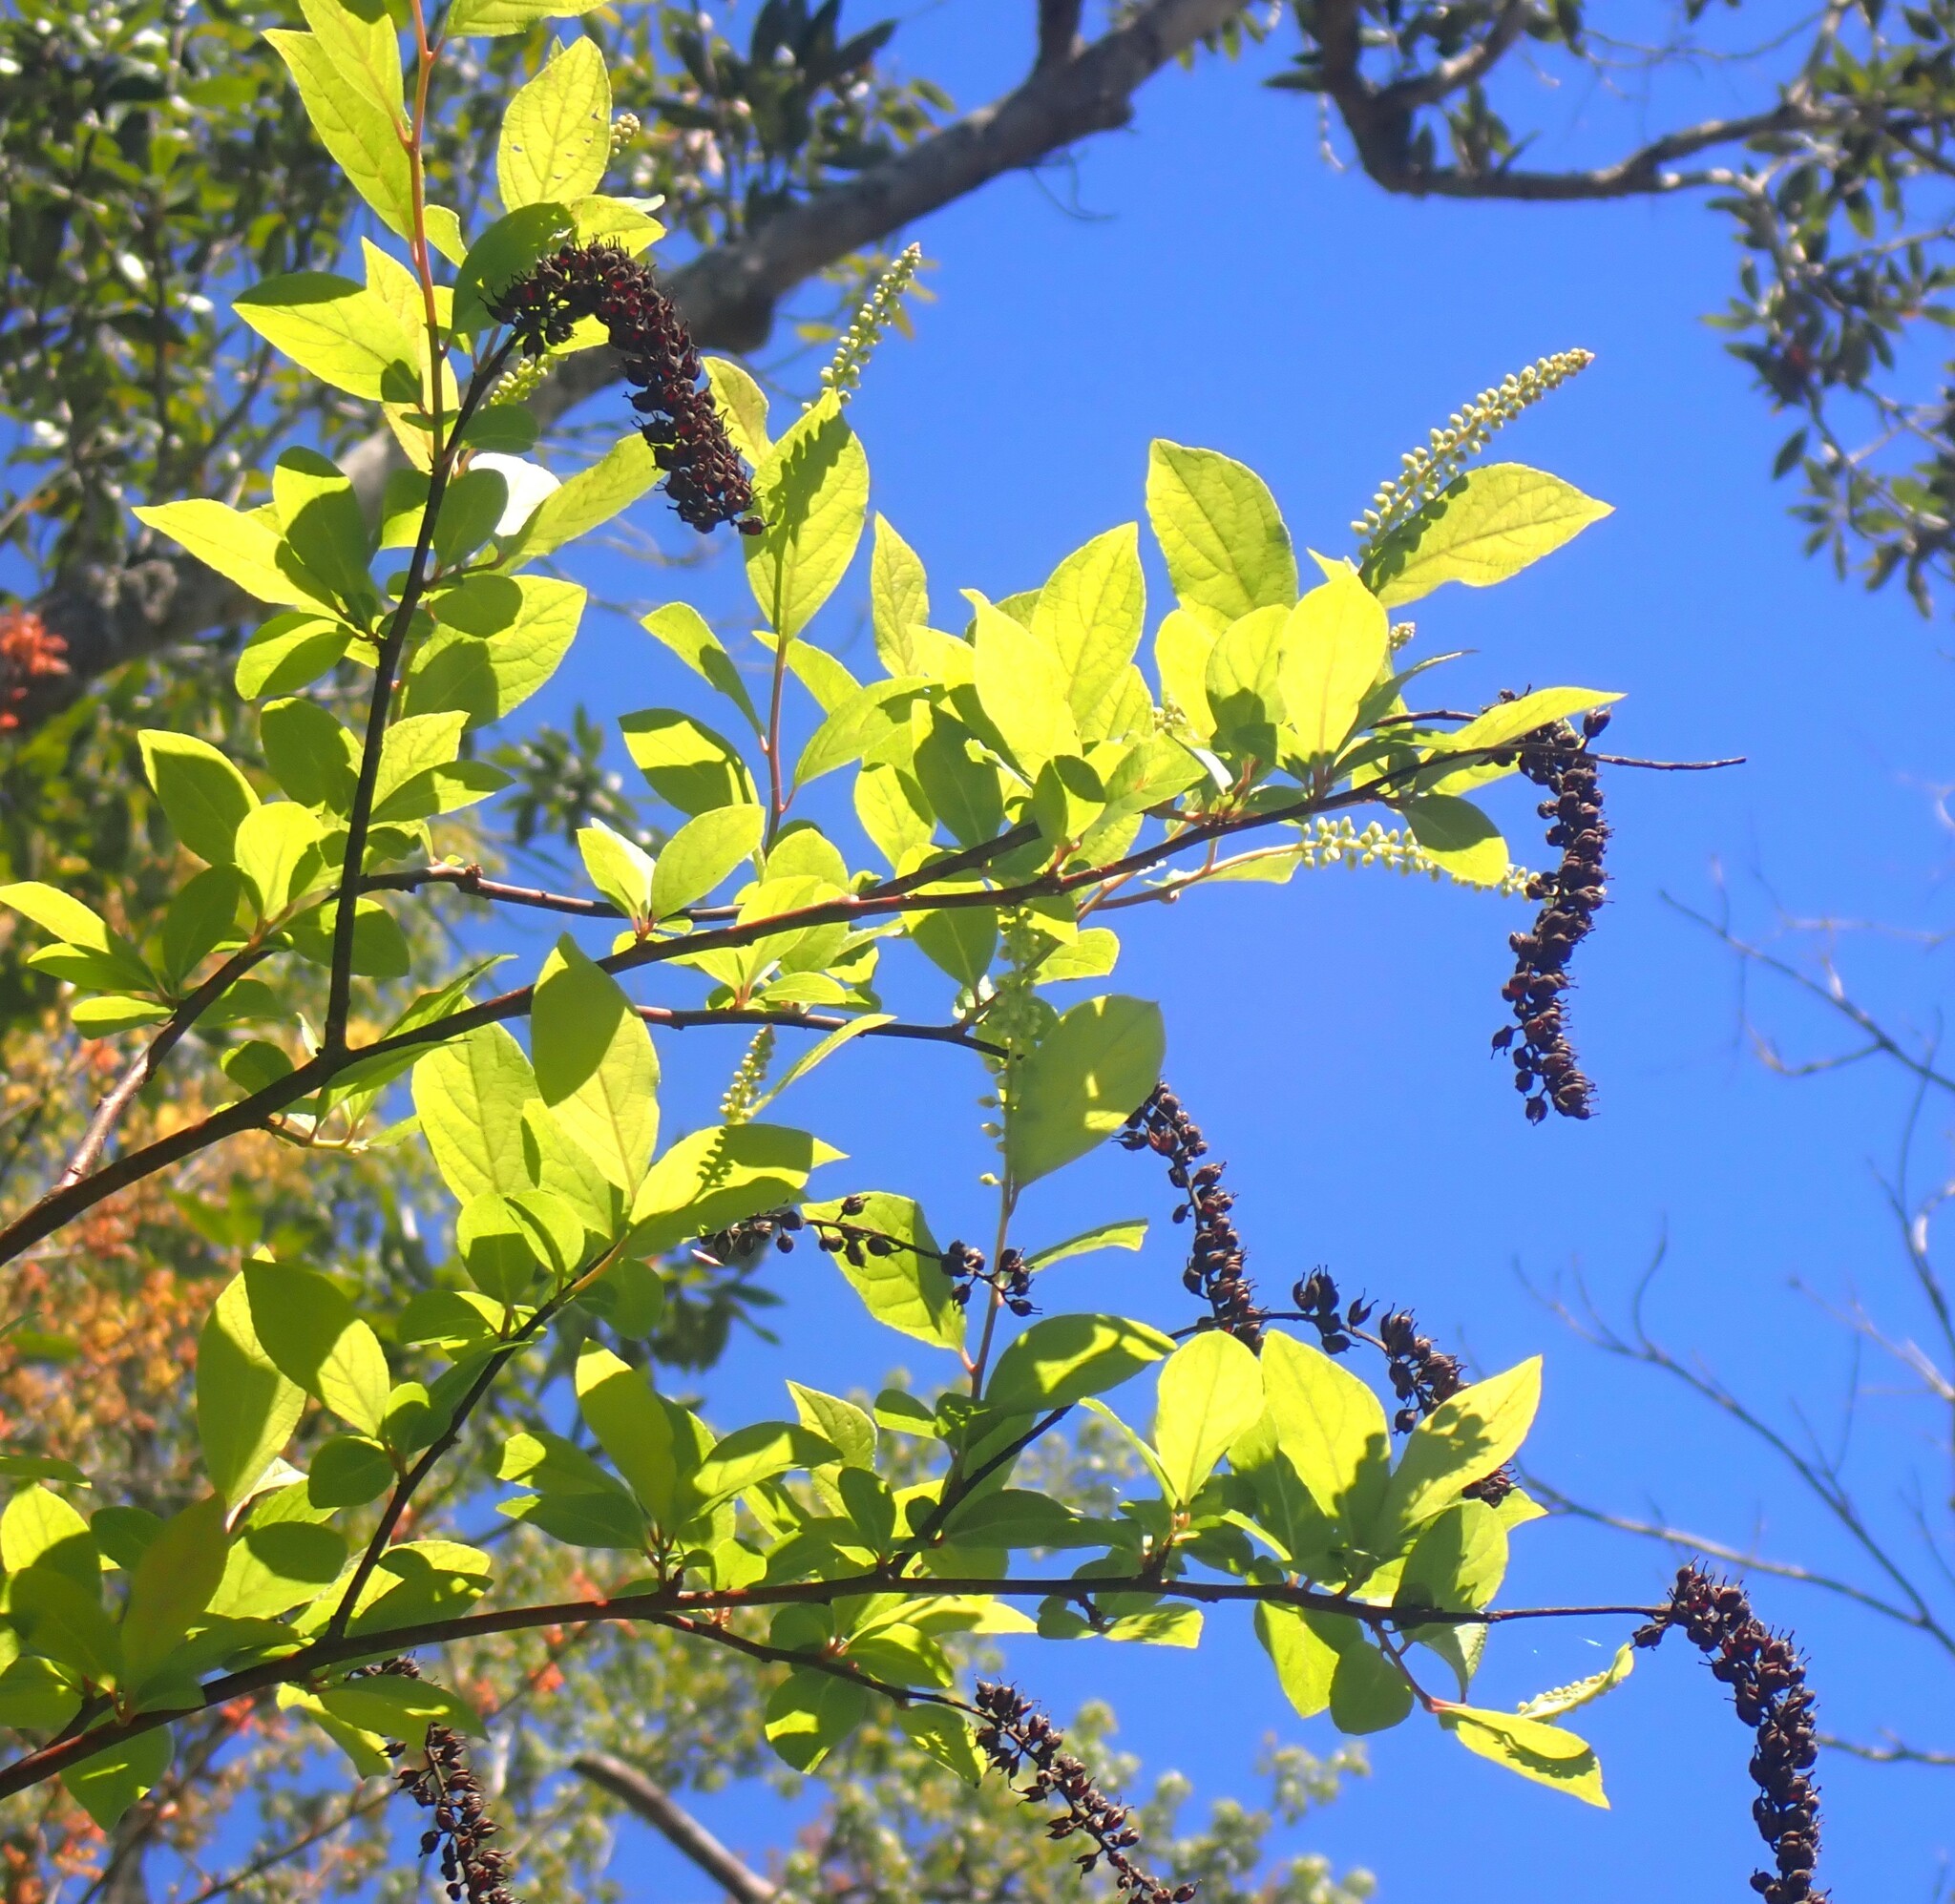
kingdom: Plantae
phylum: Tracheophyta
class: Magnoliopsida
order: Saxifragales
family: Iteaceae
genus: Itea
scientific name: Itea virginica
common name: Sweetspire
